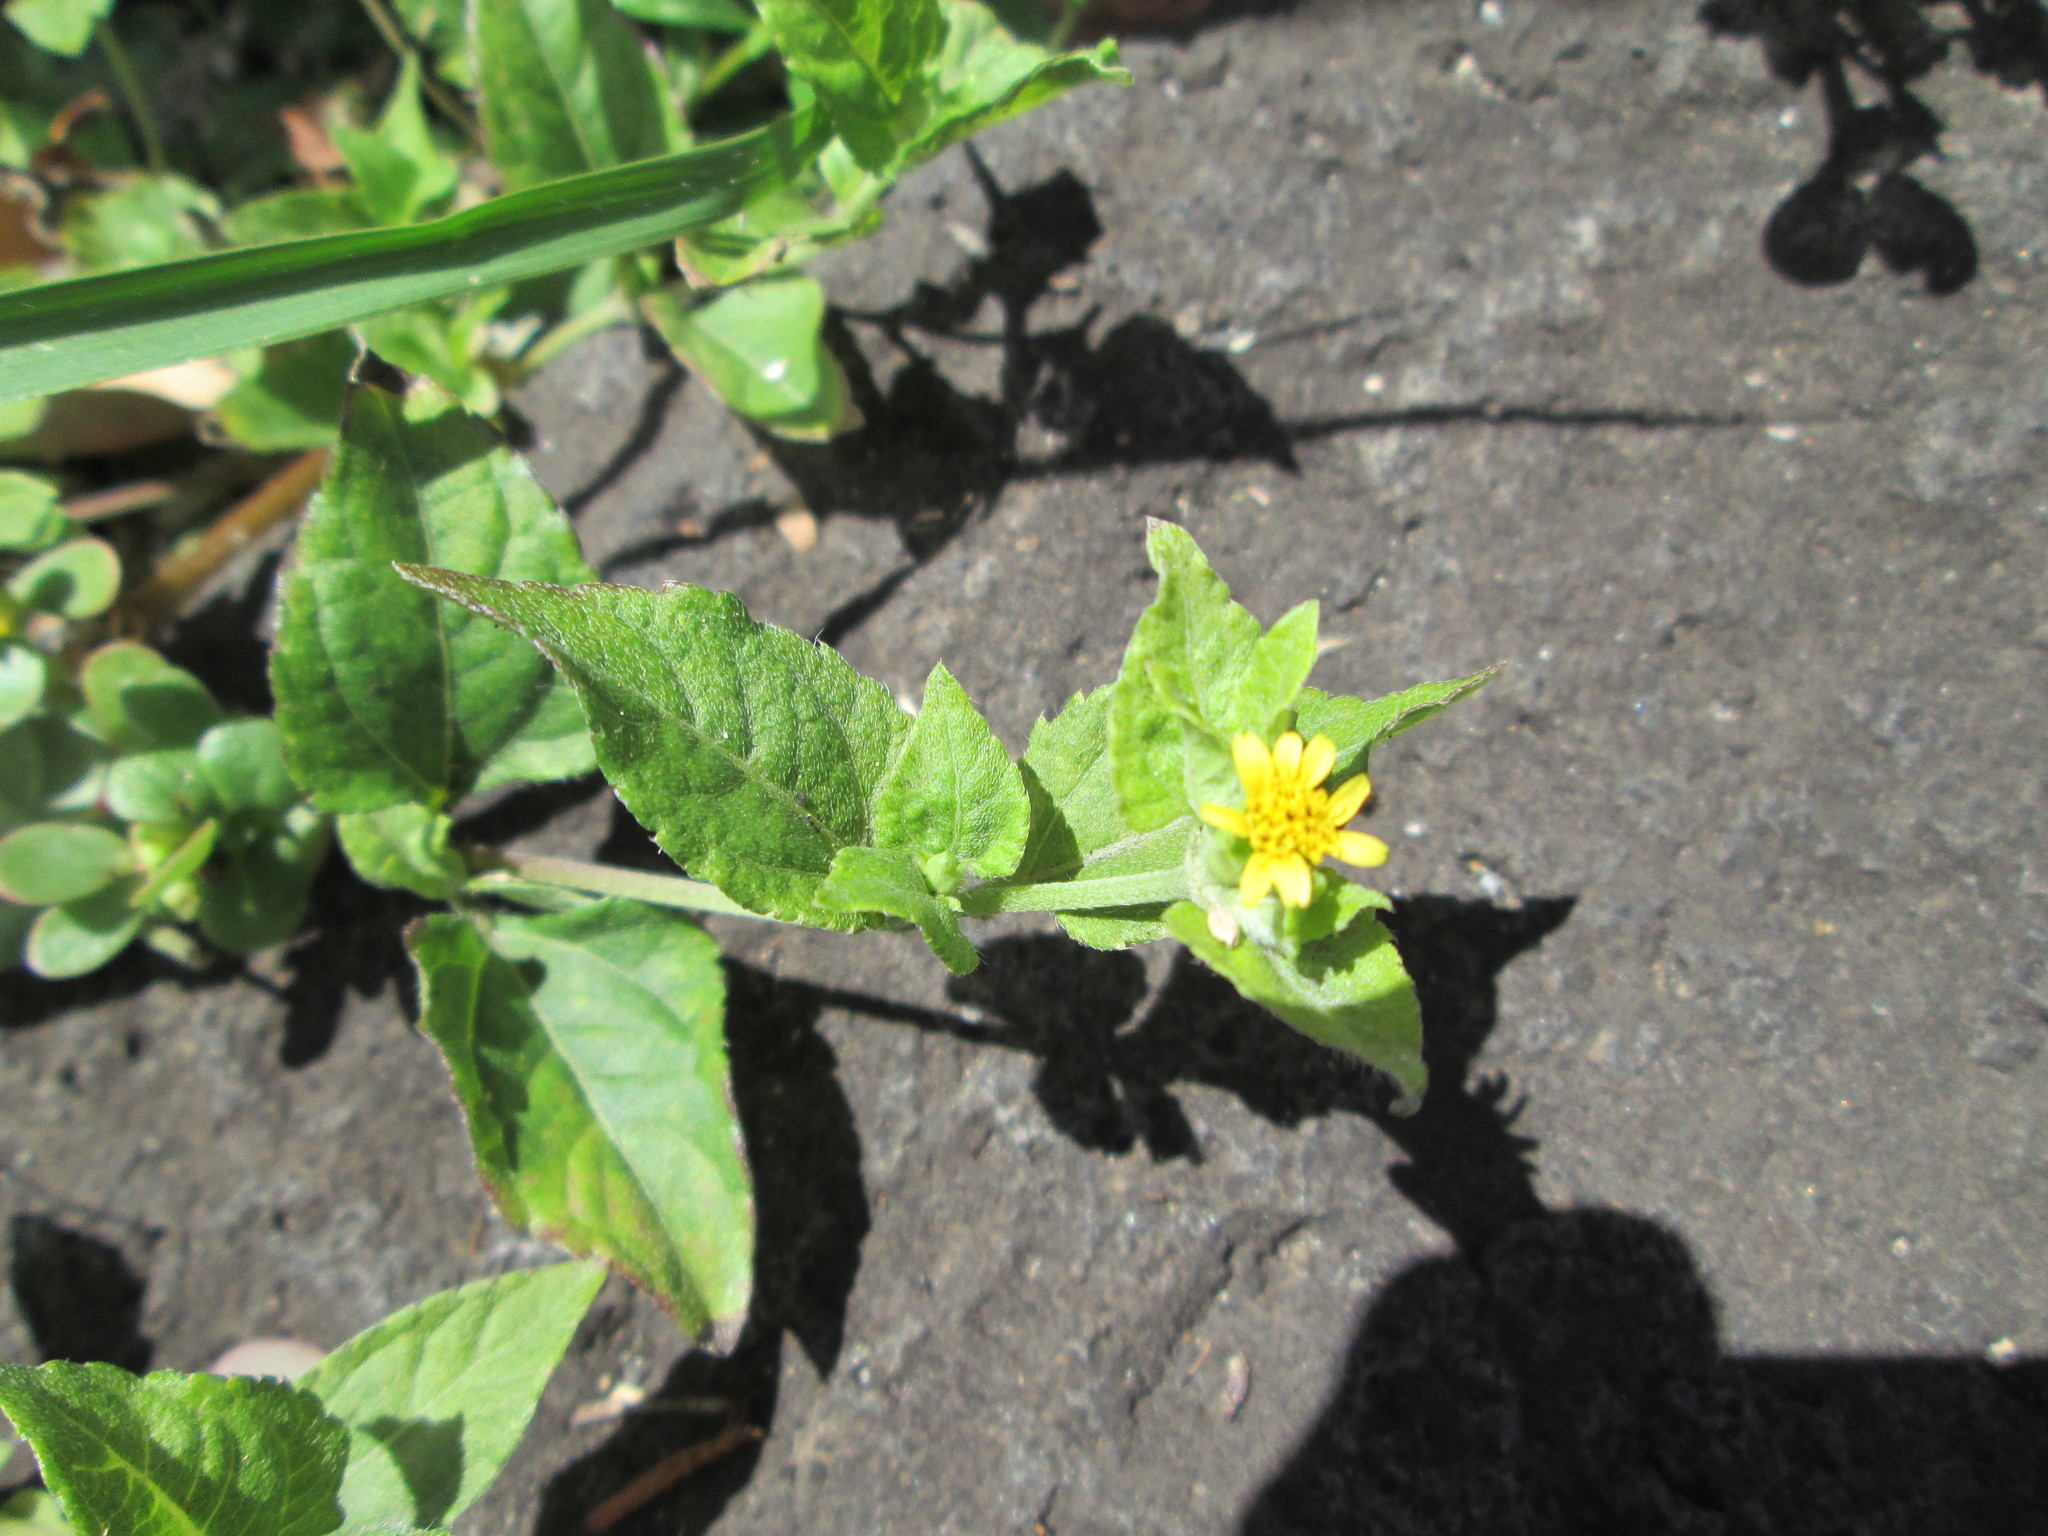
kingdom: Plantae
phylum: Tracheophyta
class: Magnoliopsida
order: Asterales
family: Asteraceae
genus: Calyptocarpus
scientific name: Calyptocarpus vialis
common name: Straggler daisy
